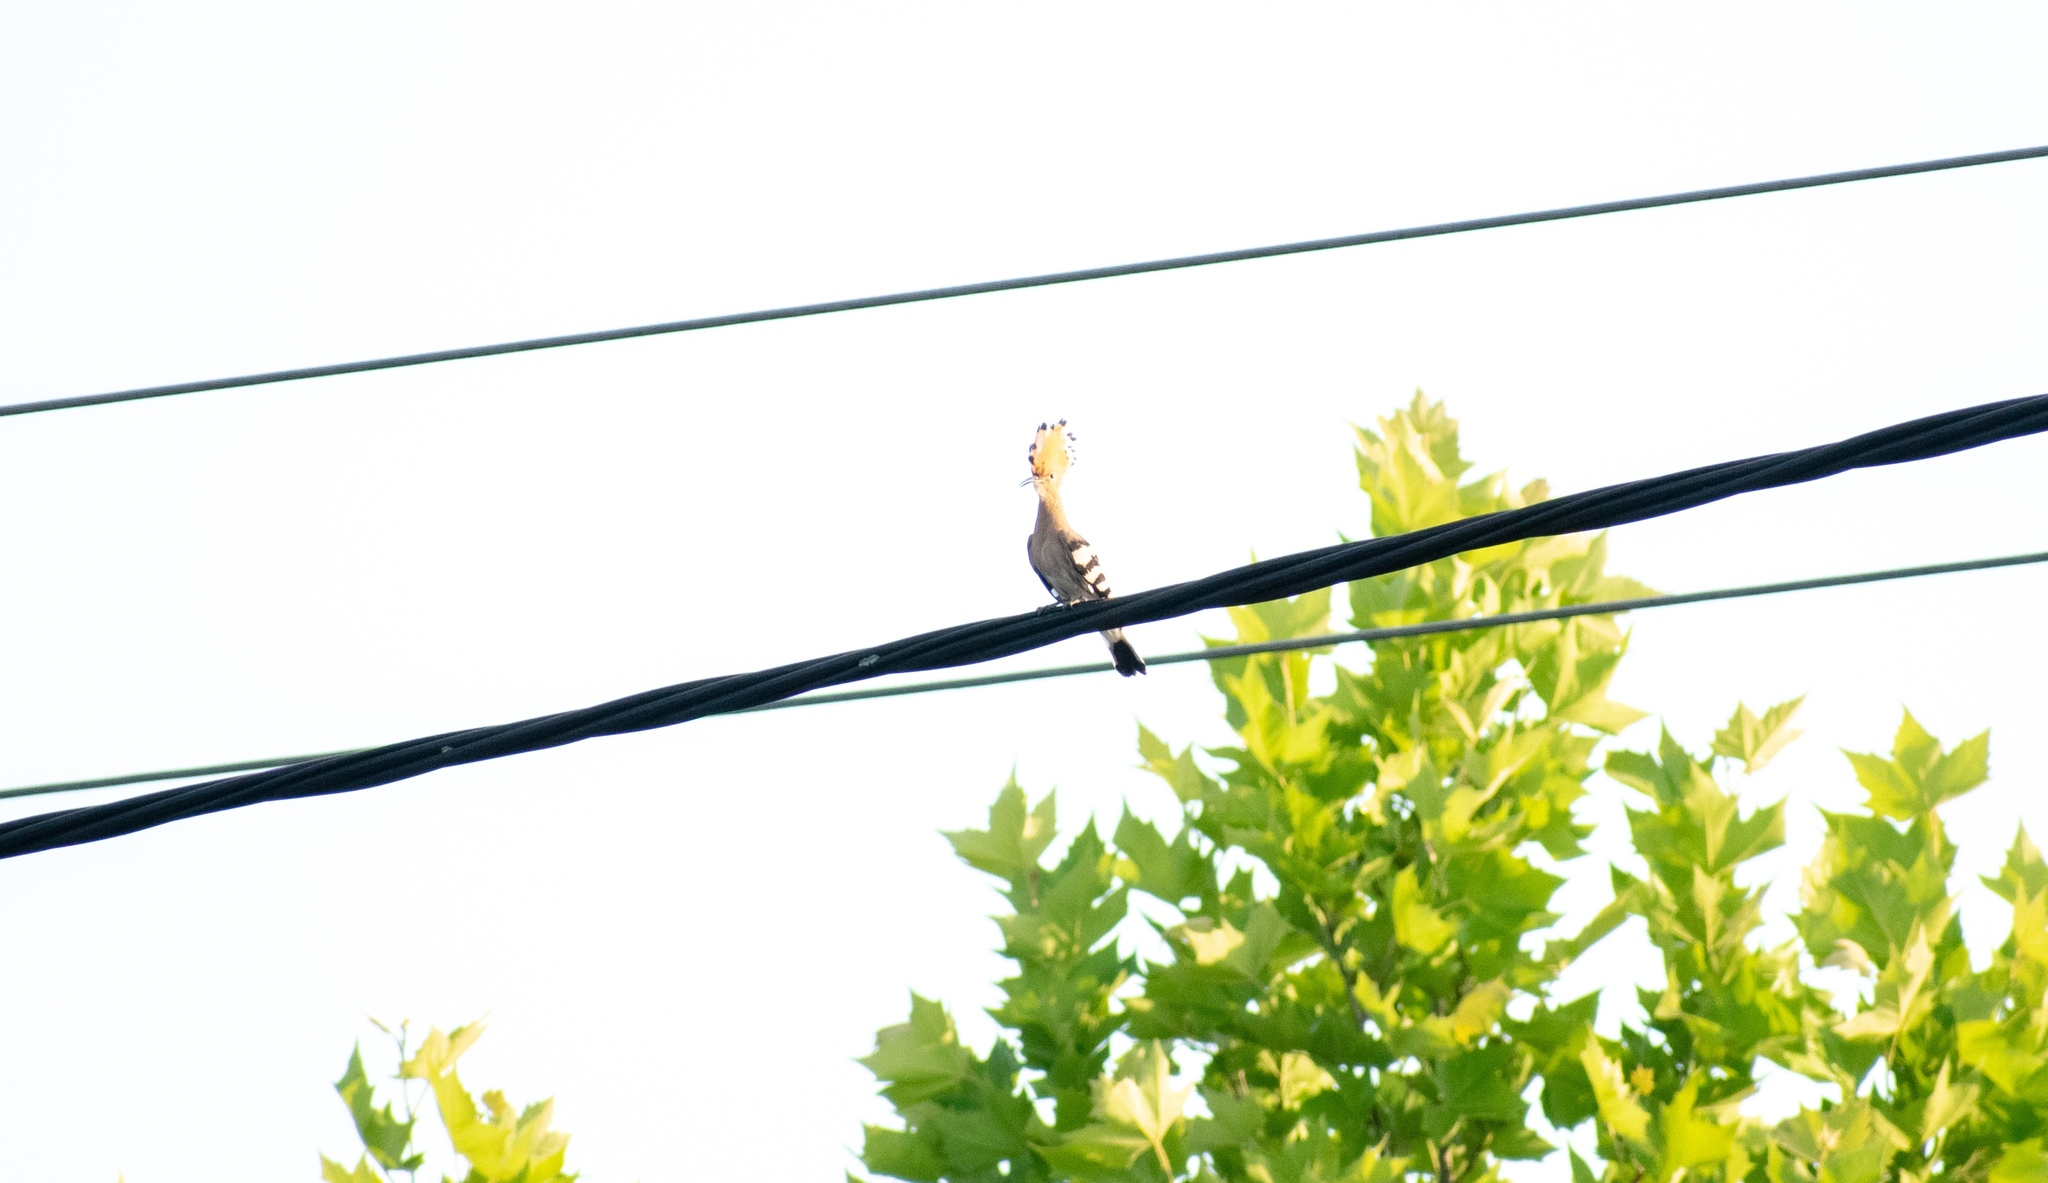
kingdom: Animalia
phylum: Chordata
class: Aves
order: Bucerotiformes
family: Upupidae
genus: Upupa
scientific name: Upupa epops
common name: Eurasian hoopoe
